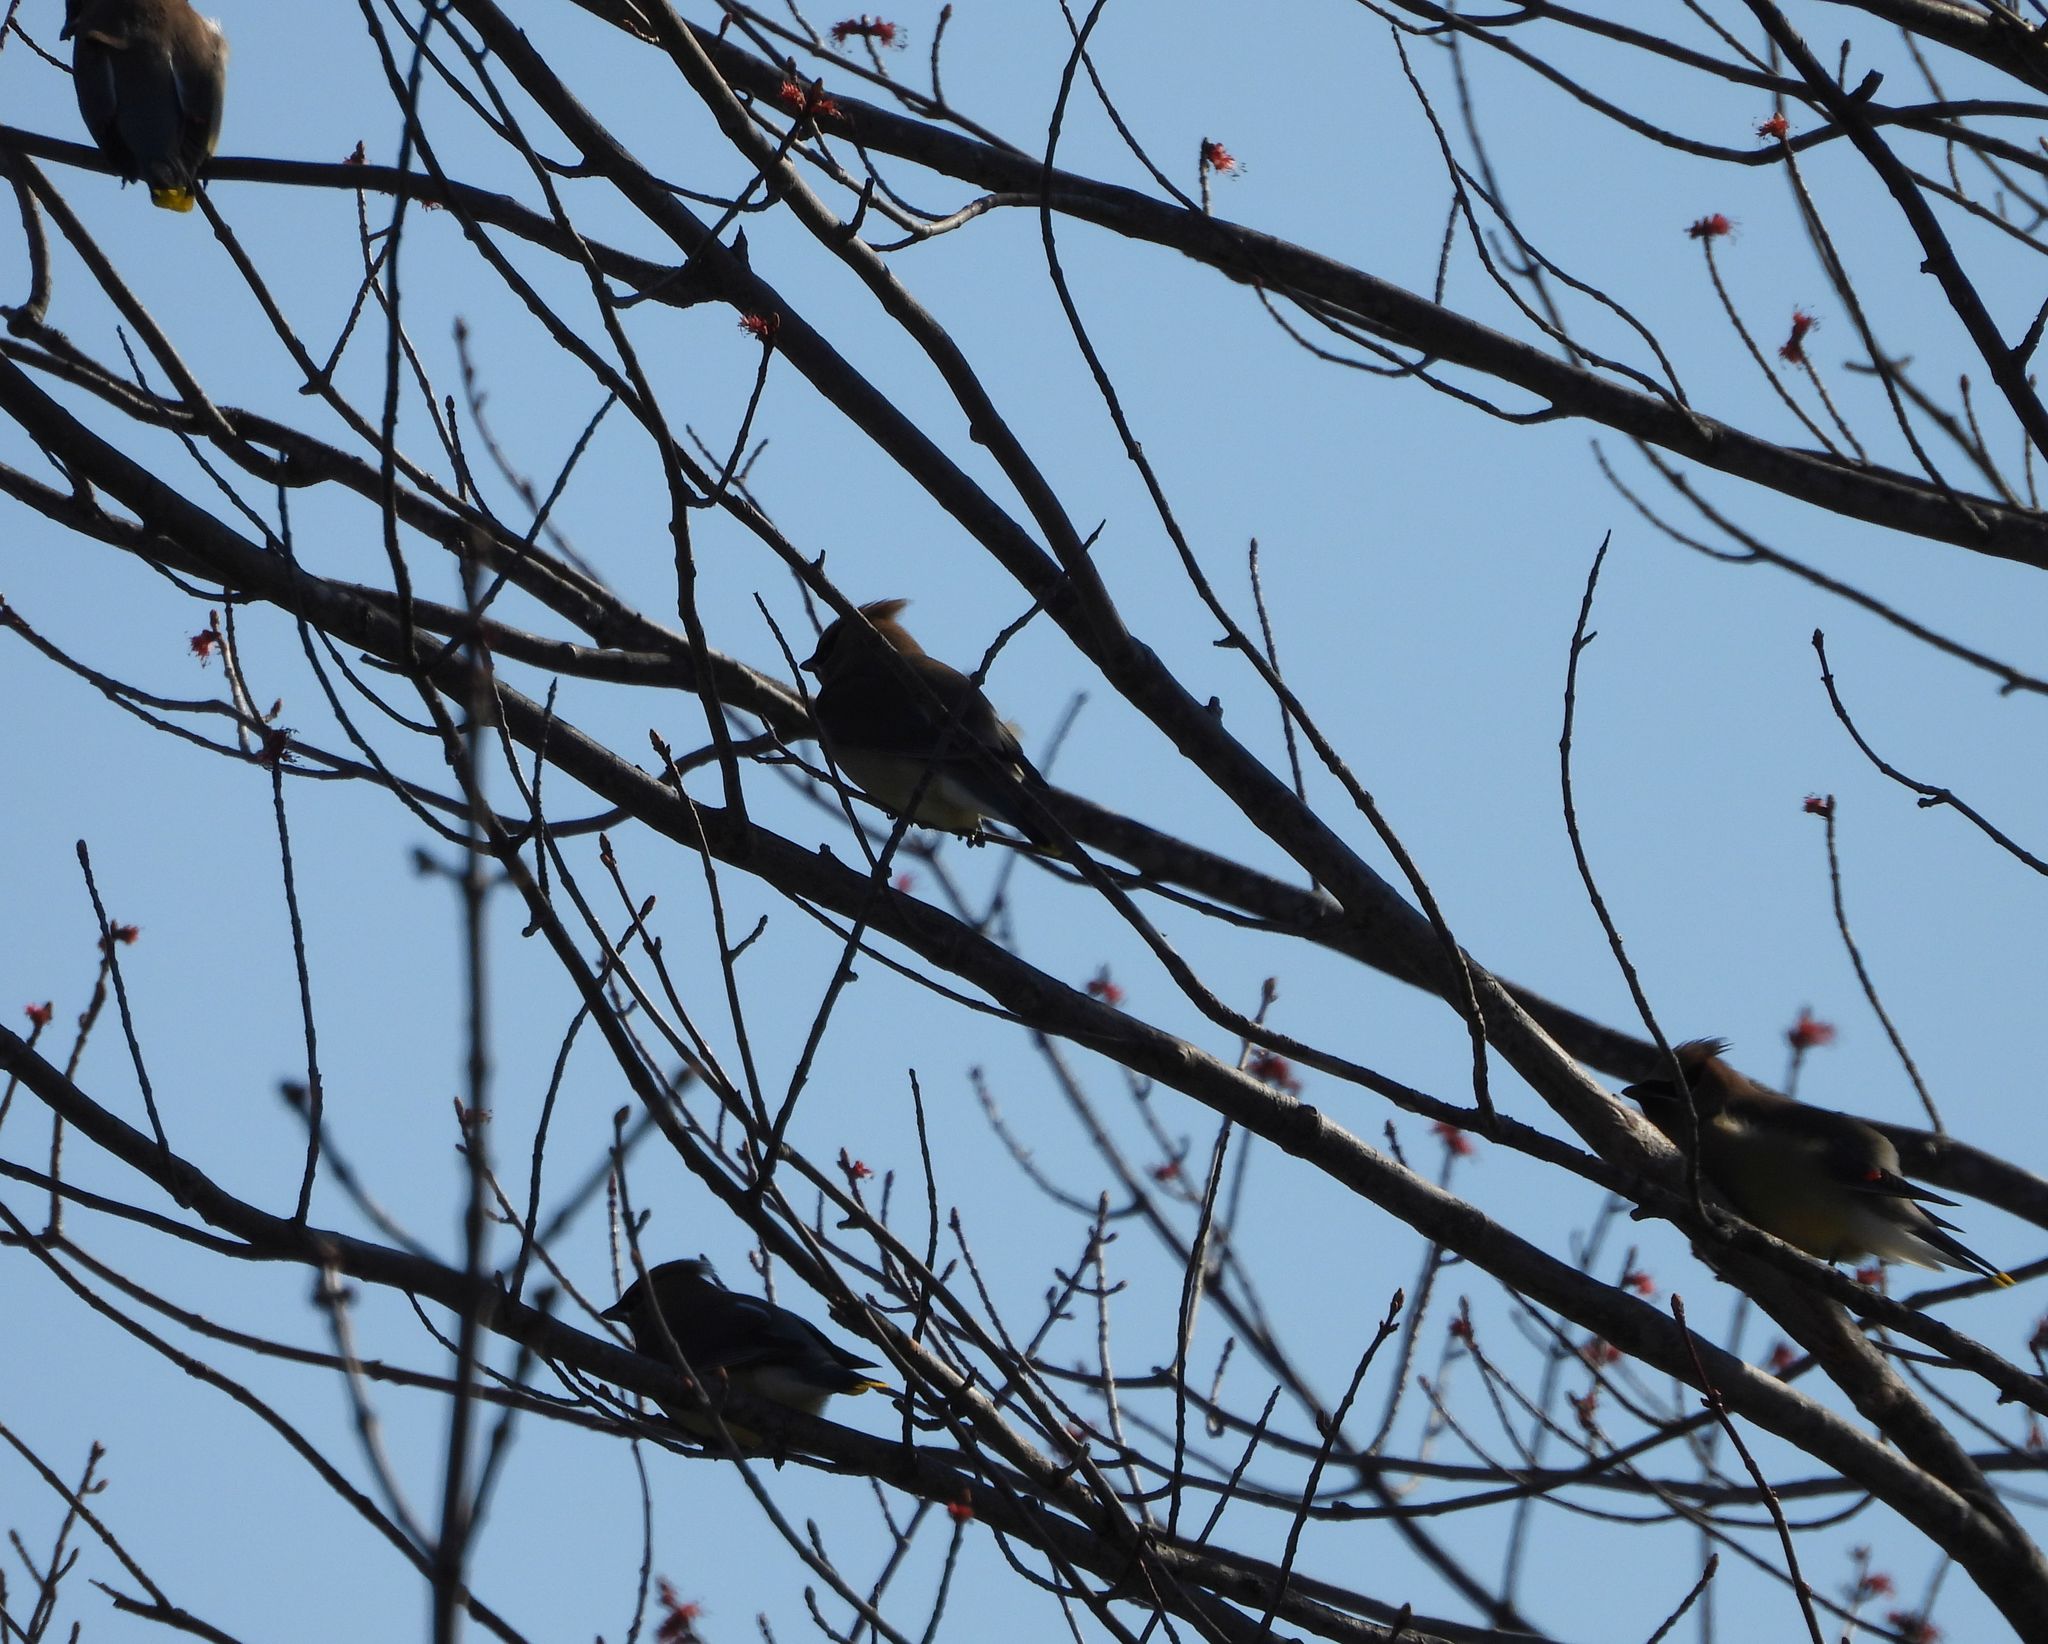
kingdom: Animalia
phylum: Chordata
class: Aves
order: Passeriformes
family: Bombycillidae
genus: Bombycilla
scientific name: Bombycilla cedrorum
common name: Cedar waxwing
